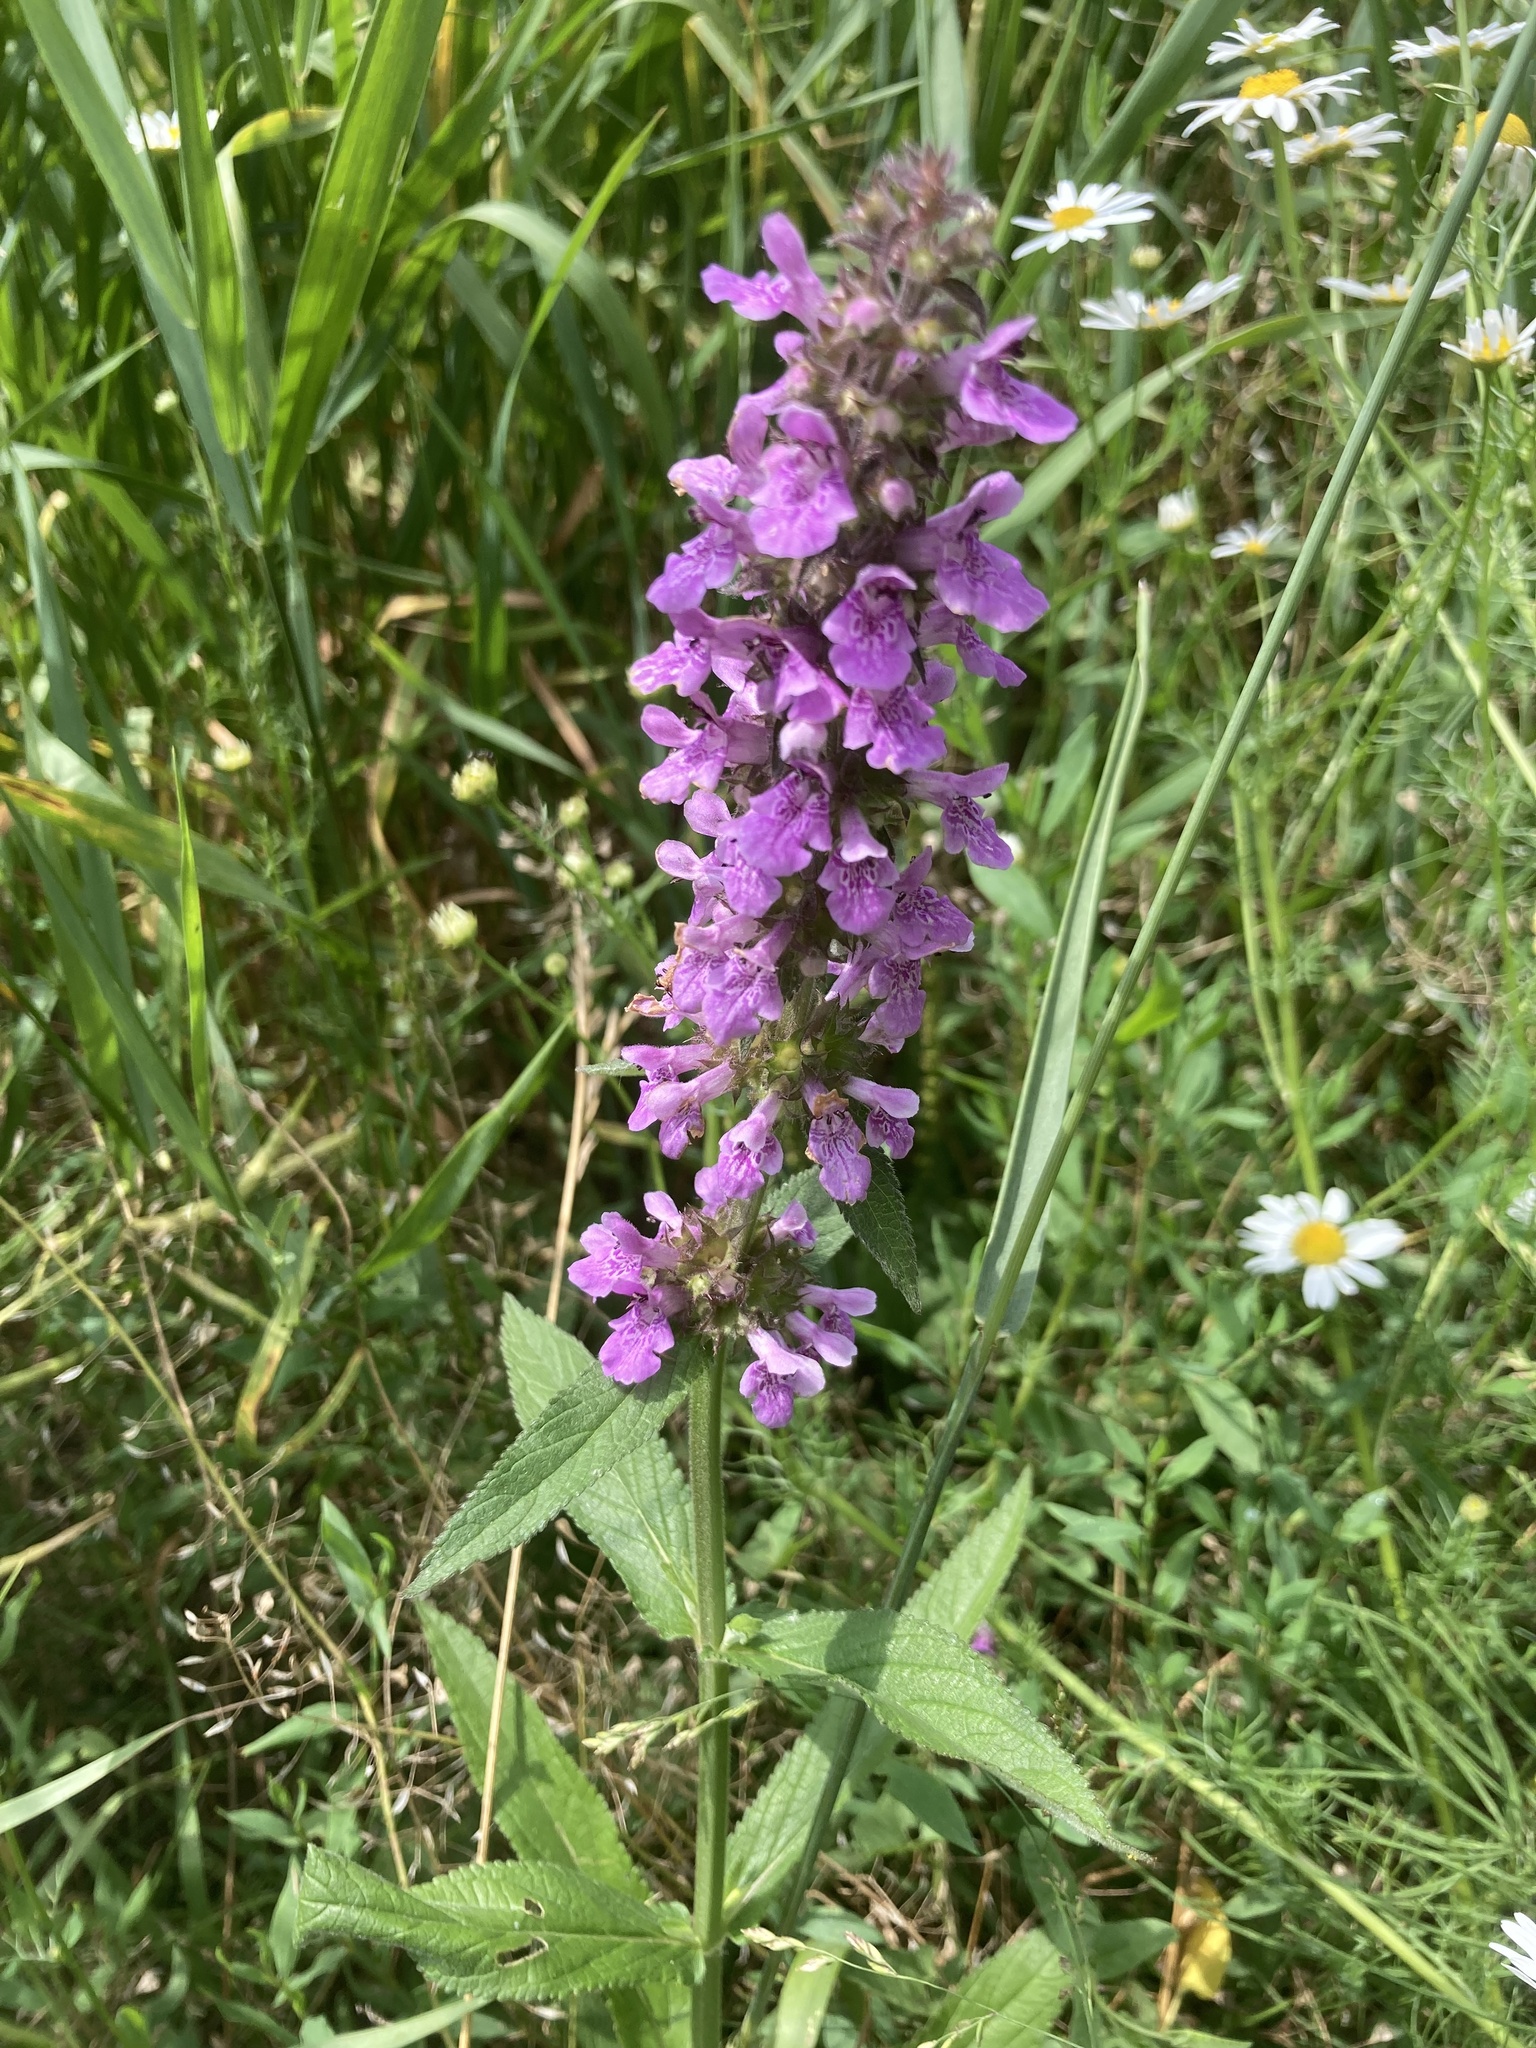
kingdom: Plantae
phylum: Tracheophyta
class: Magnoliopsida
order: Lamiales
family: Lamiaceae
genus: Stachys
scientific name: Stachys palustris
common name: Marsh woundwort
